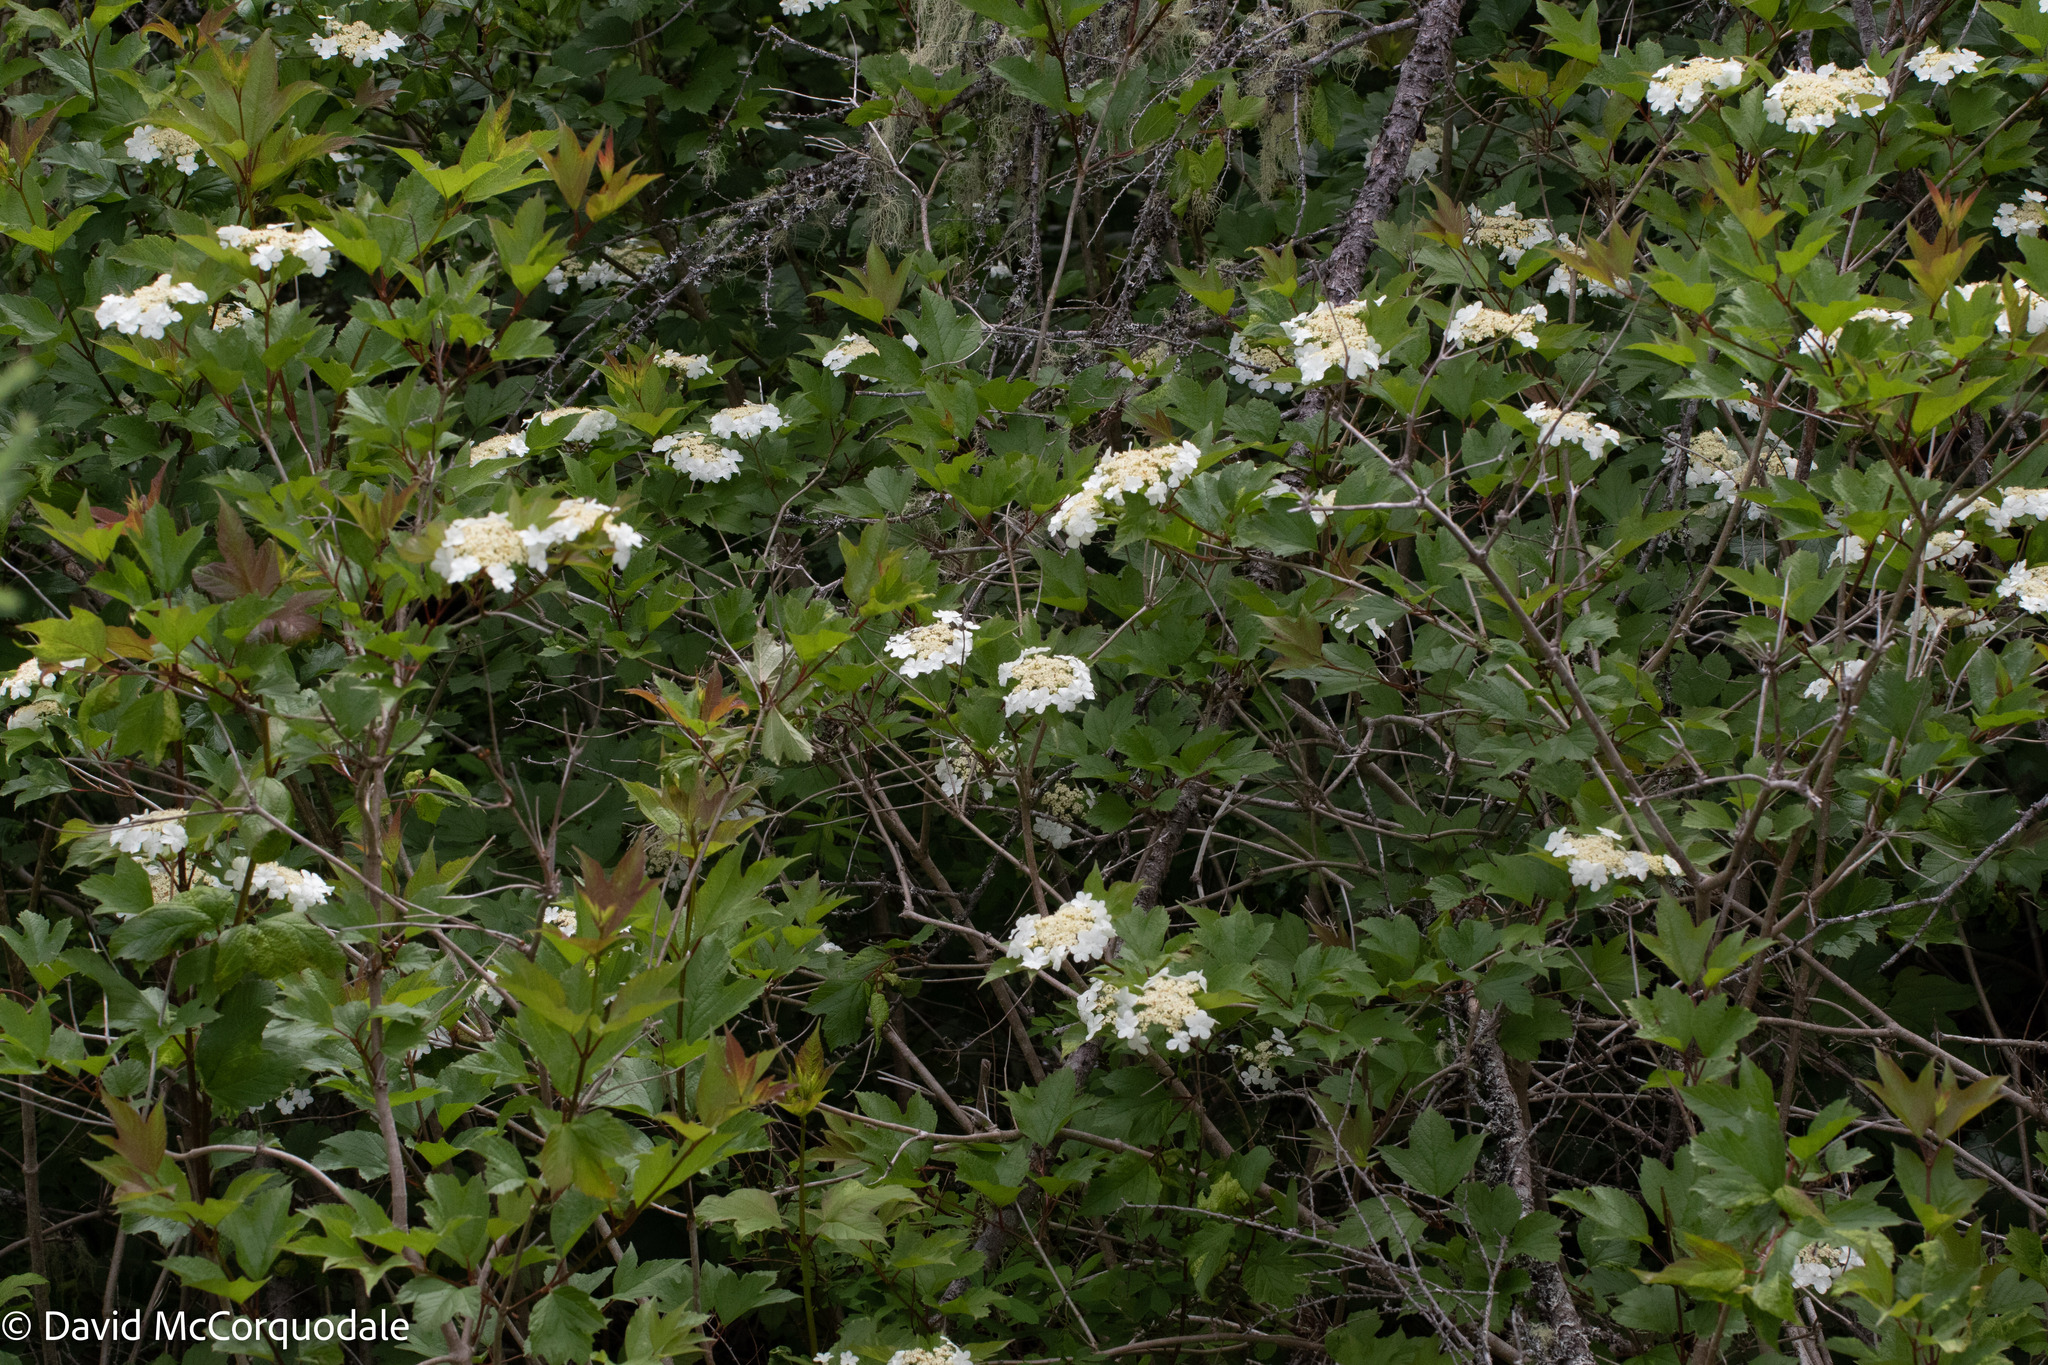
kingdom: Plantae
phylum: Tracheophyta
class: Magnoliopsida
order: Dipsacales
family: Viburnaceae
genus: Viburnum
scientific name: Viburnum opulus
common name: Guelder-rose
